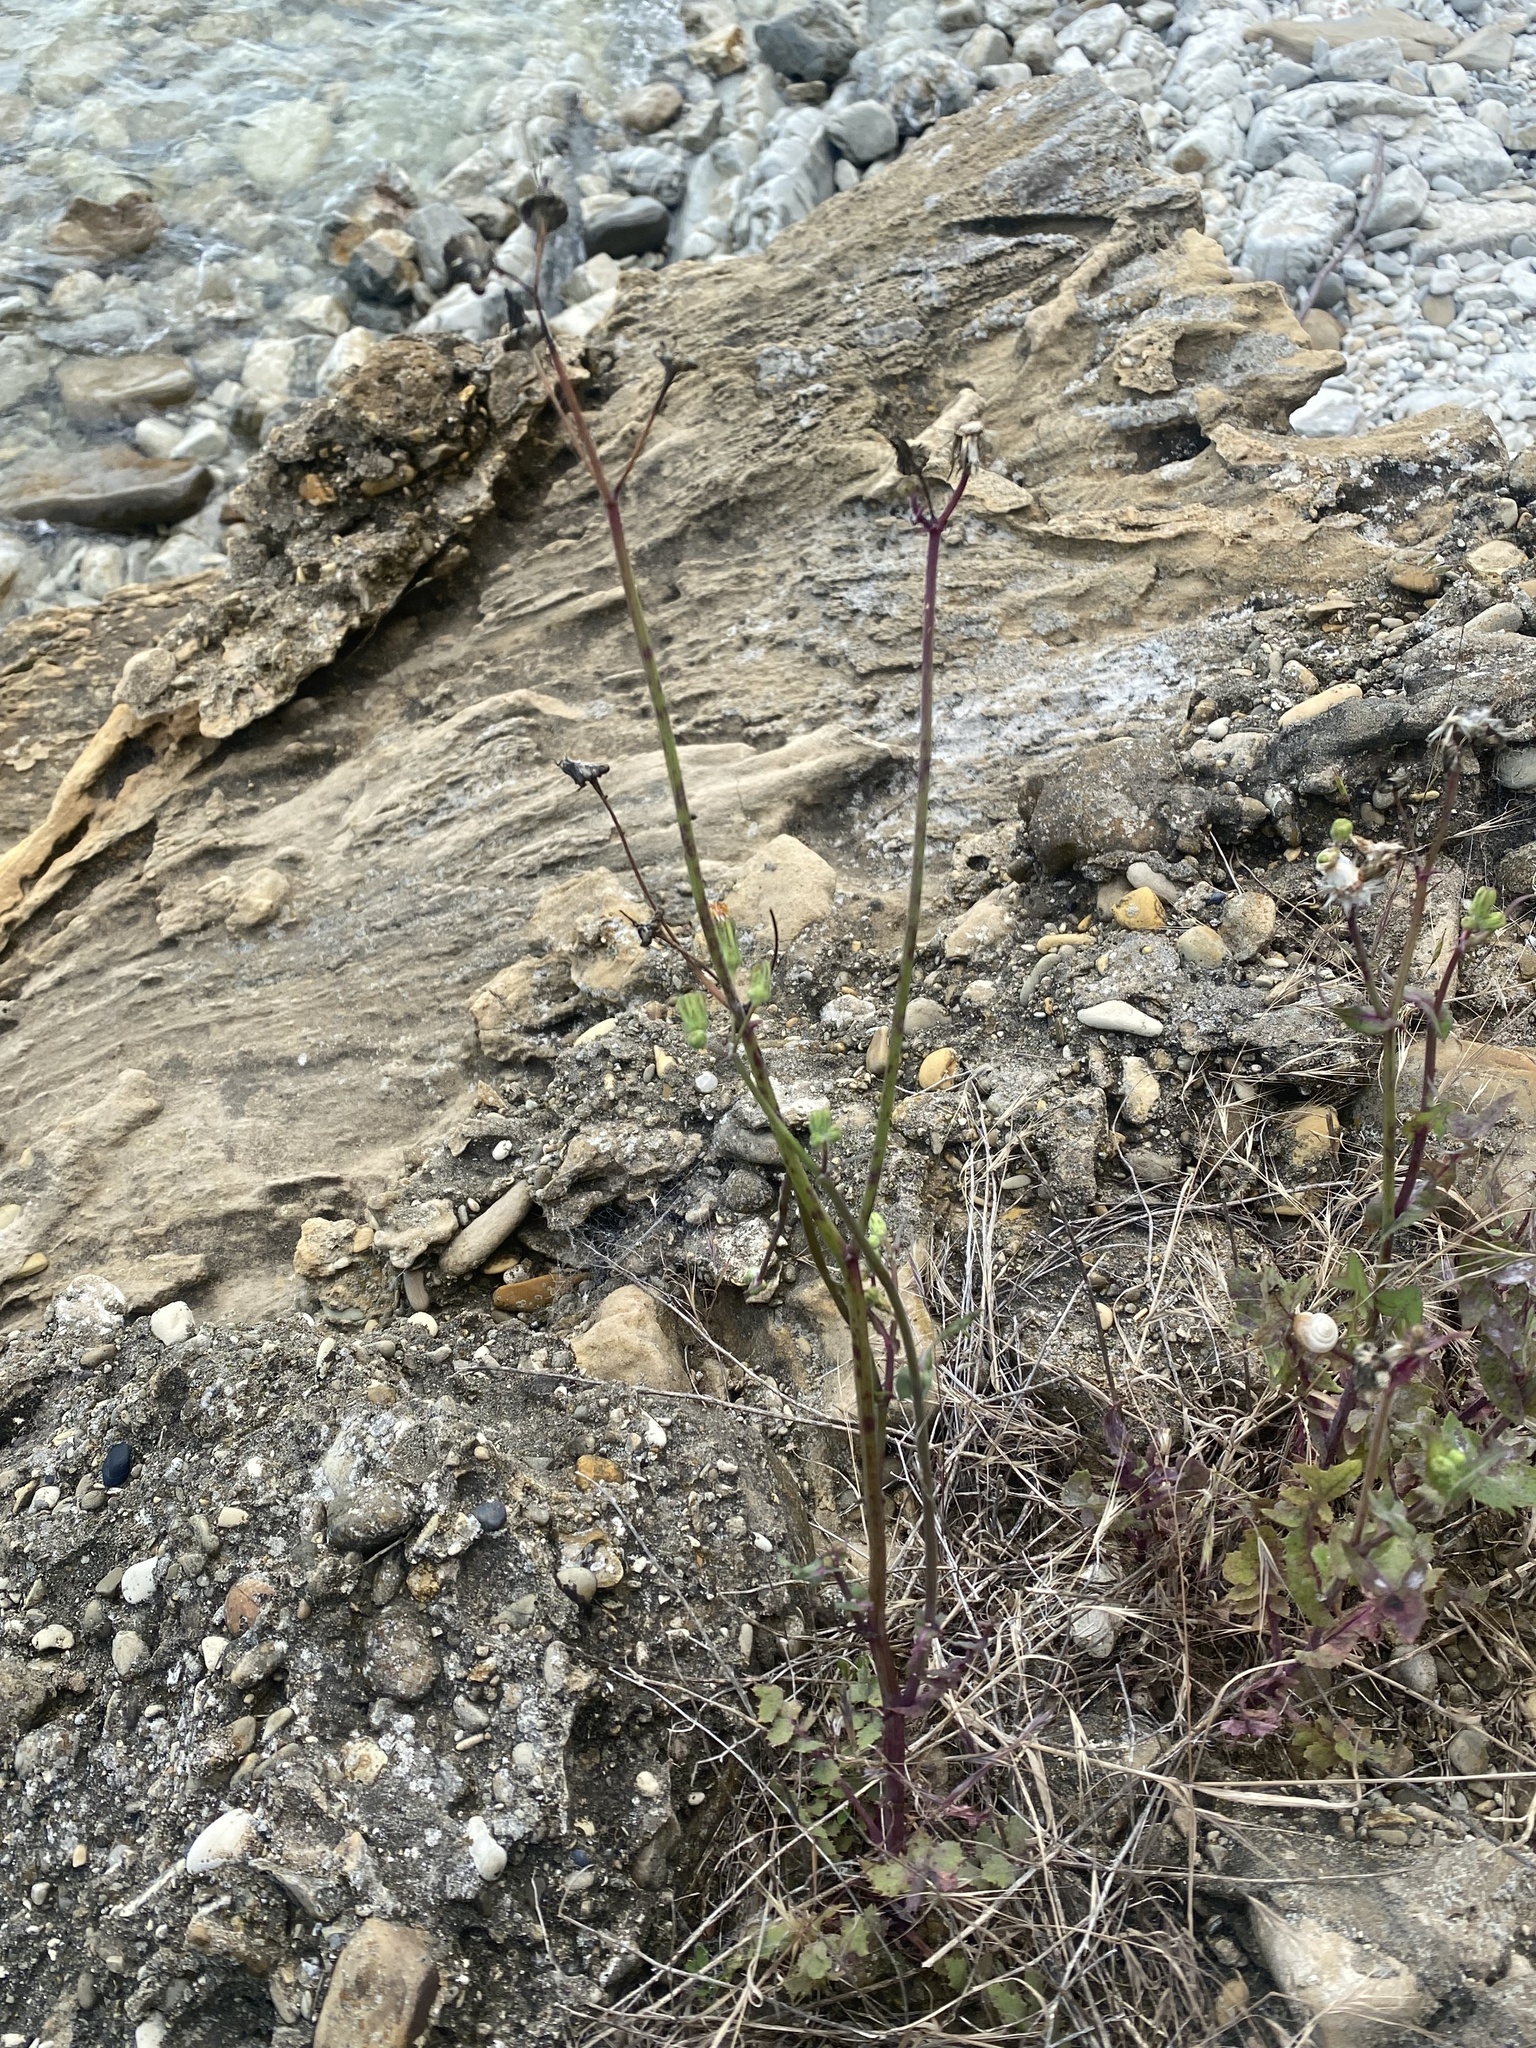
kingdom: Plantae
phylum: Tracheophyta
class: Magnoliopsida
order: Asterales
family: Asteraceae
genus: Sonchus
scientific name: Sonchus oleraceus
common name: Common sowthistle
